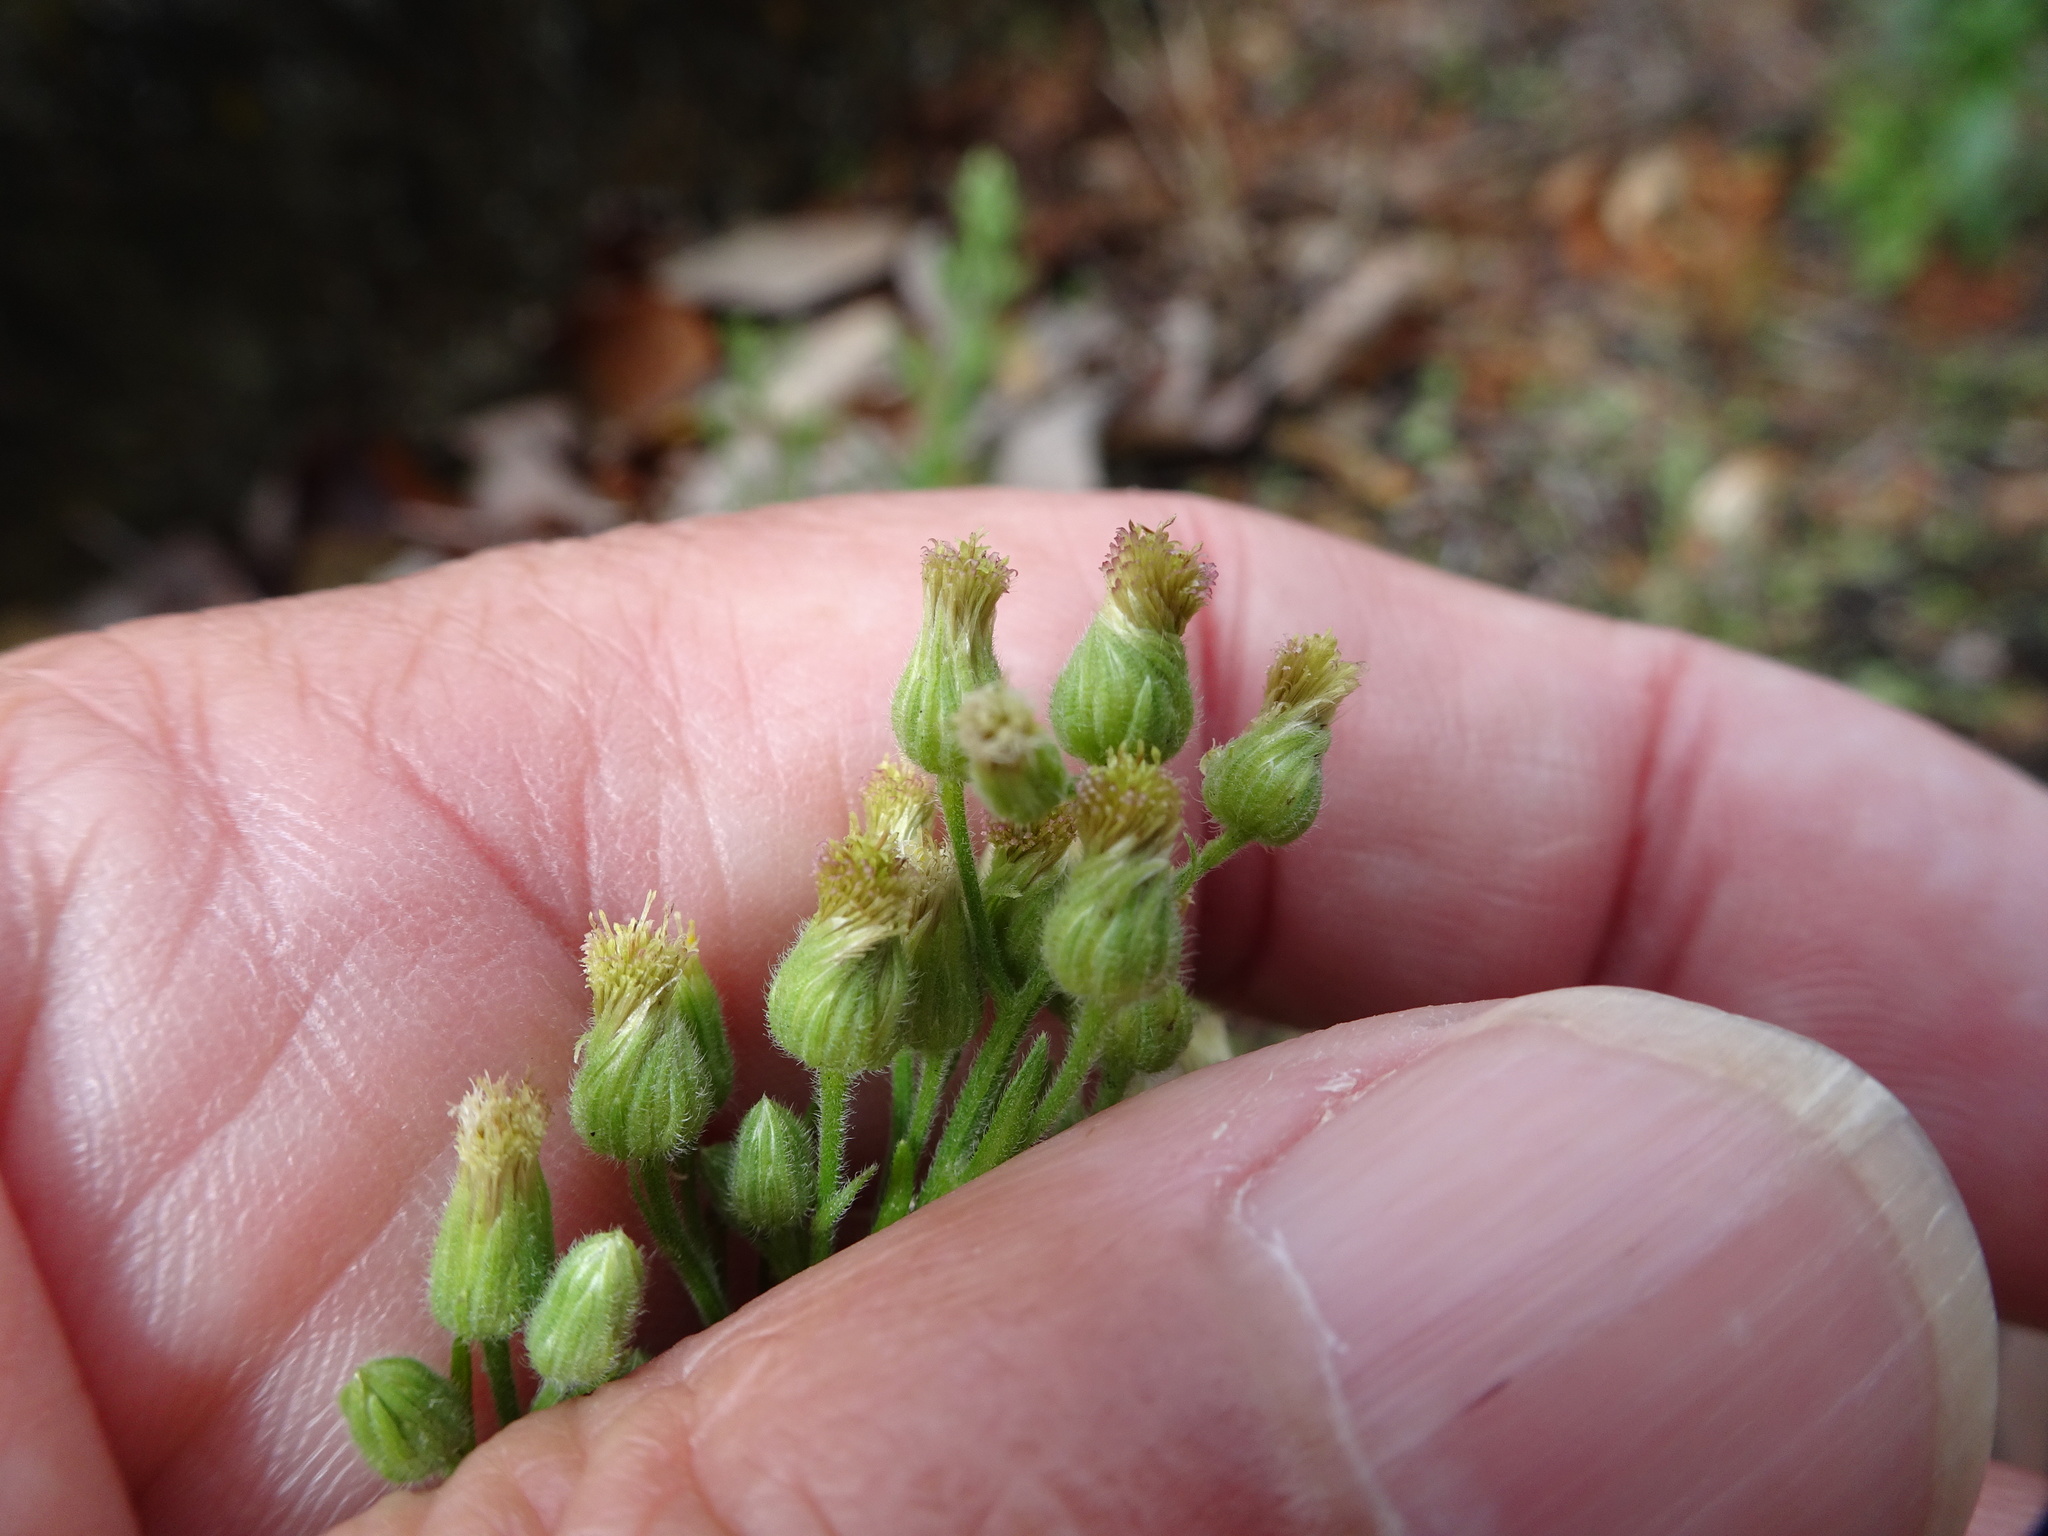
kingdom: Plantae
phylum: Tracheophyta
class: Magnoliopsida
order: Asterales
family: Asteraceae
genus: Erigeron
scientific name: Erigeron sumatrensis
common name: Daisy
